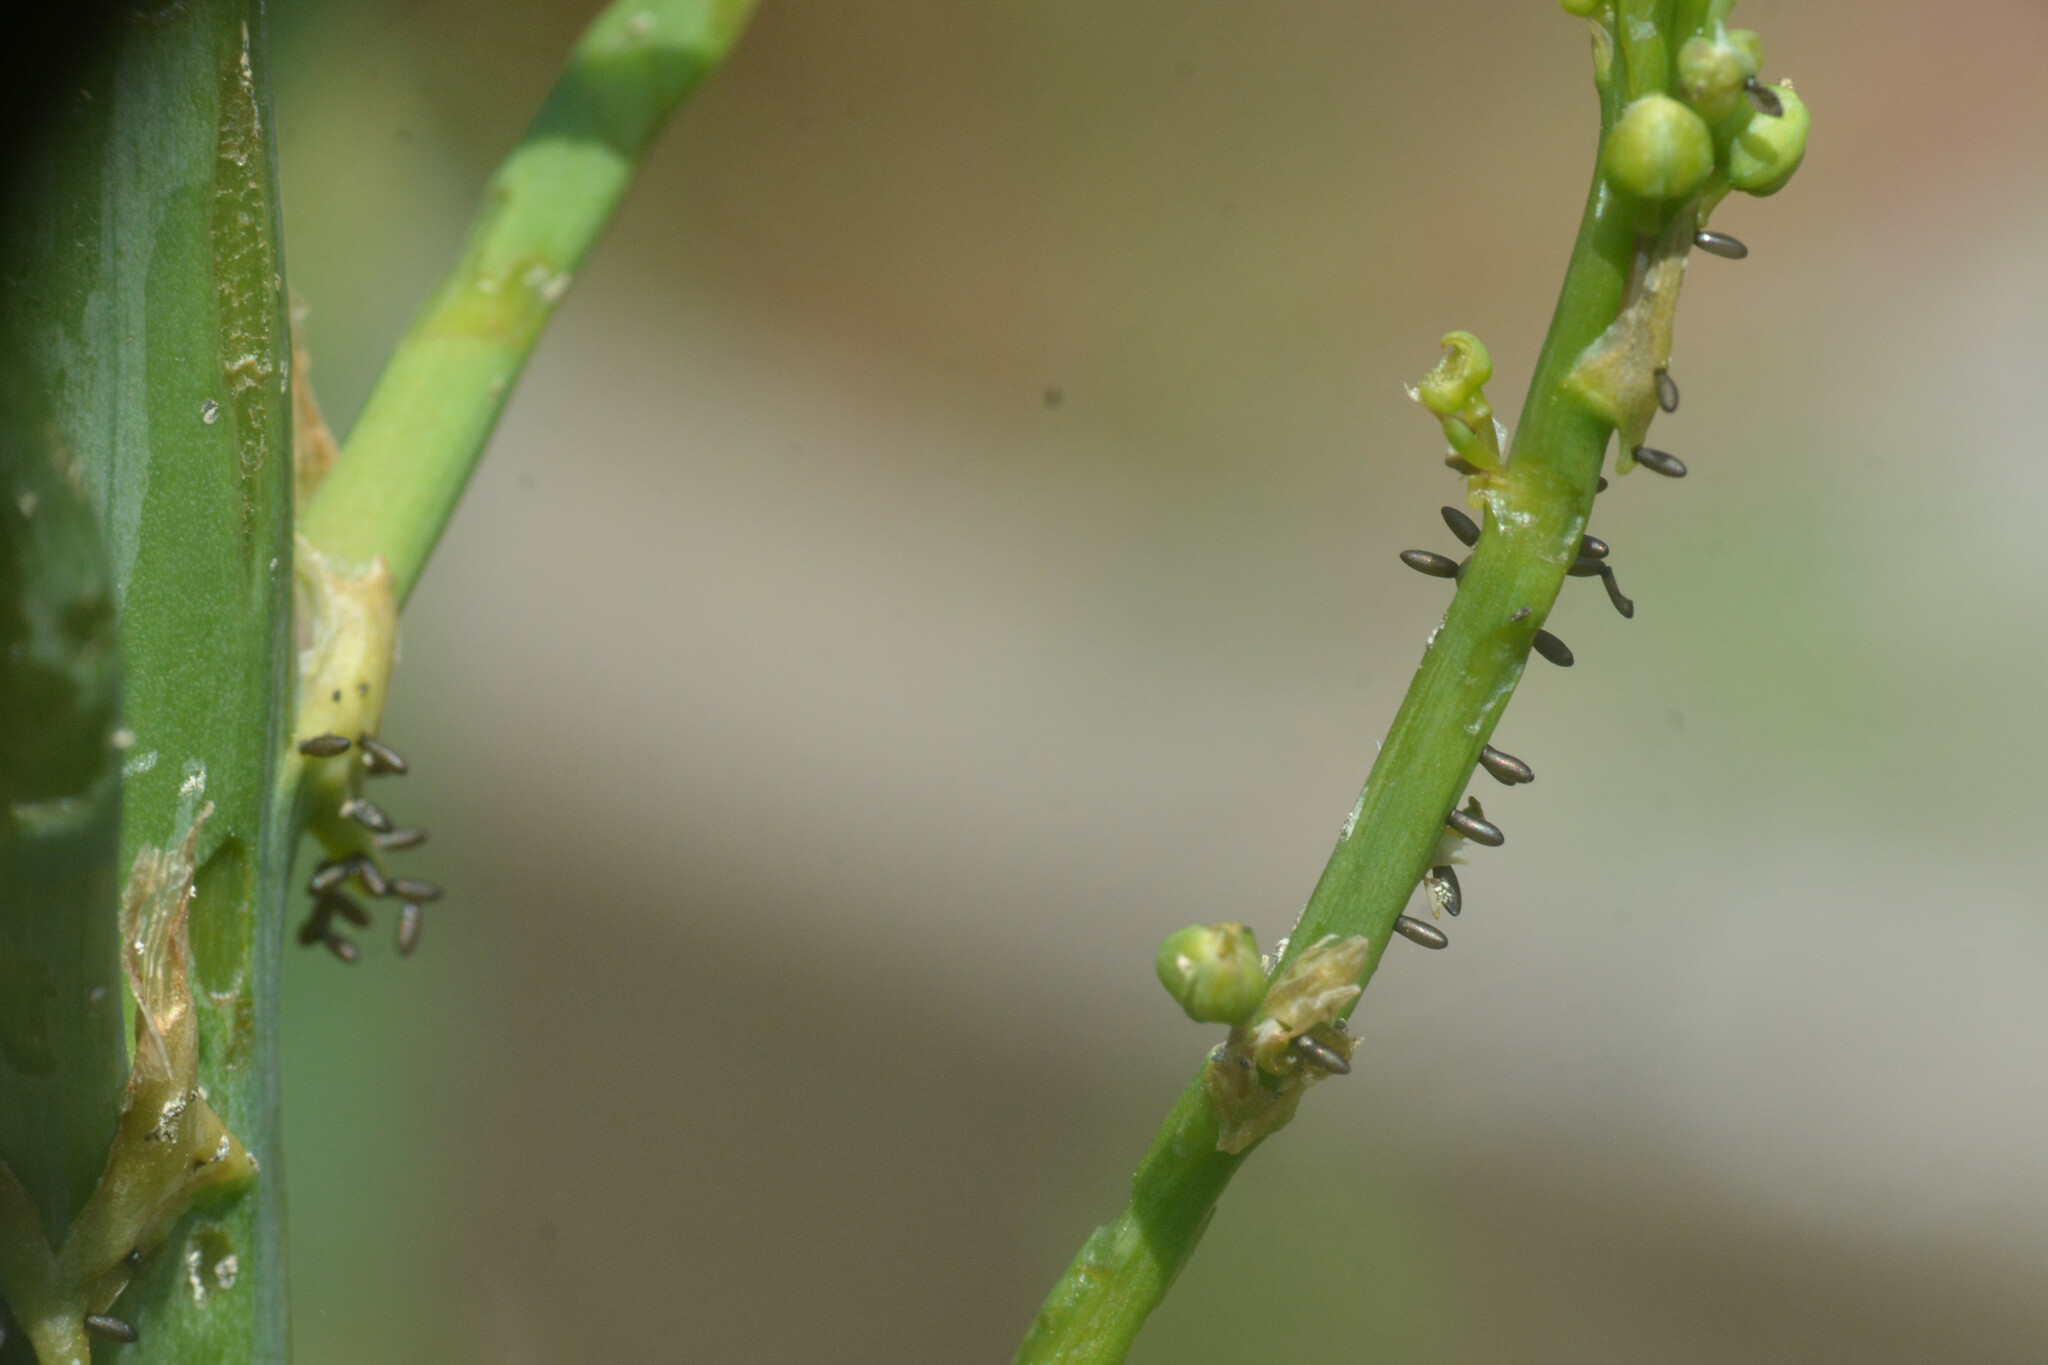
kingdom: Animalia
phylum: Arthropoda
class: Insecta
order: Coleoptera
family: Chrysomelidae
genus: Crioceris
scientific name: Crioceris asparagi
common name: Asparagus beetle
